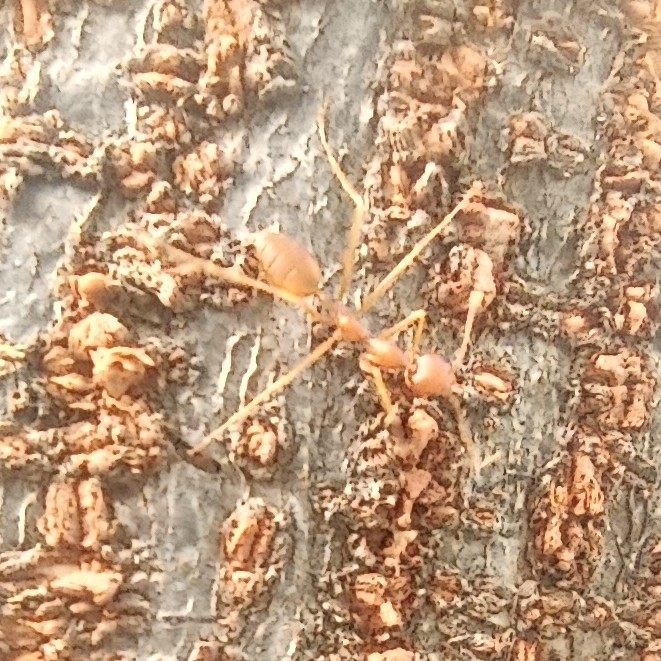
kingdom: Animalia
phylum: Arthropoda
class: Insecta
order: Hymenoptera
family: Formicidae
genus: Oecophylla
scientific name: Oecophylla smaragdina
